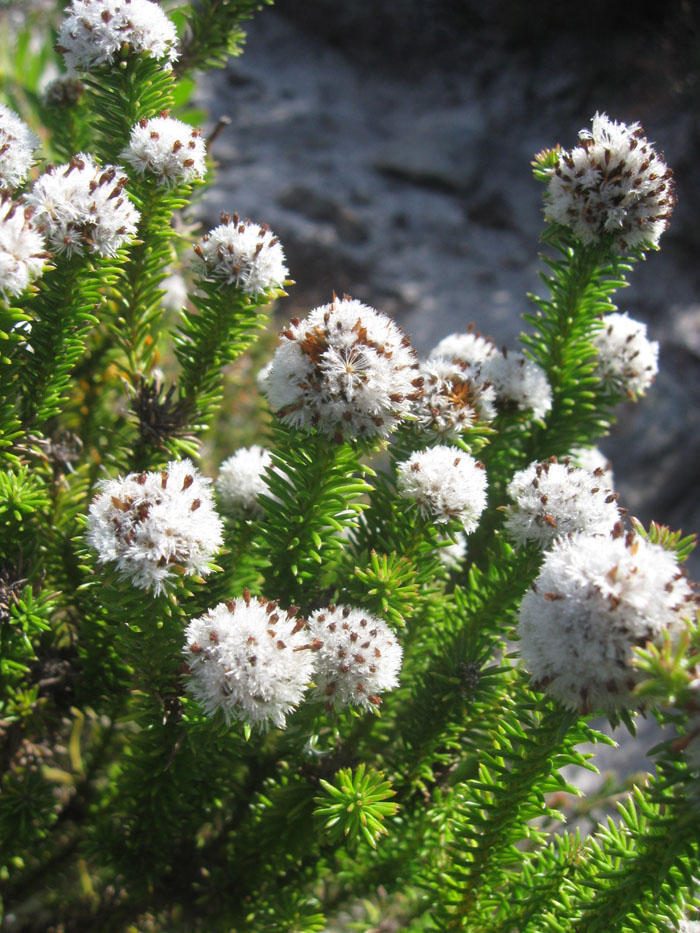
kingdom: Plantae
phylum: Tracheophyta
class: Magnoliopsida
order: Asterales
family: Asteraceae
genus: Stoebe
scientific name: Stoebe rosea
